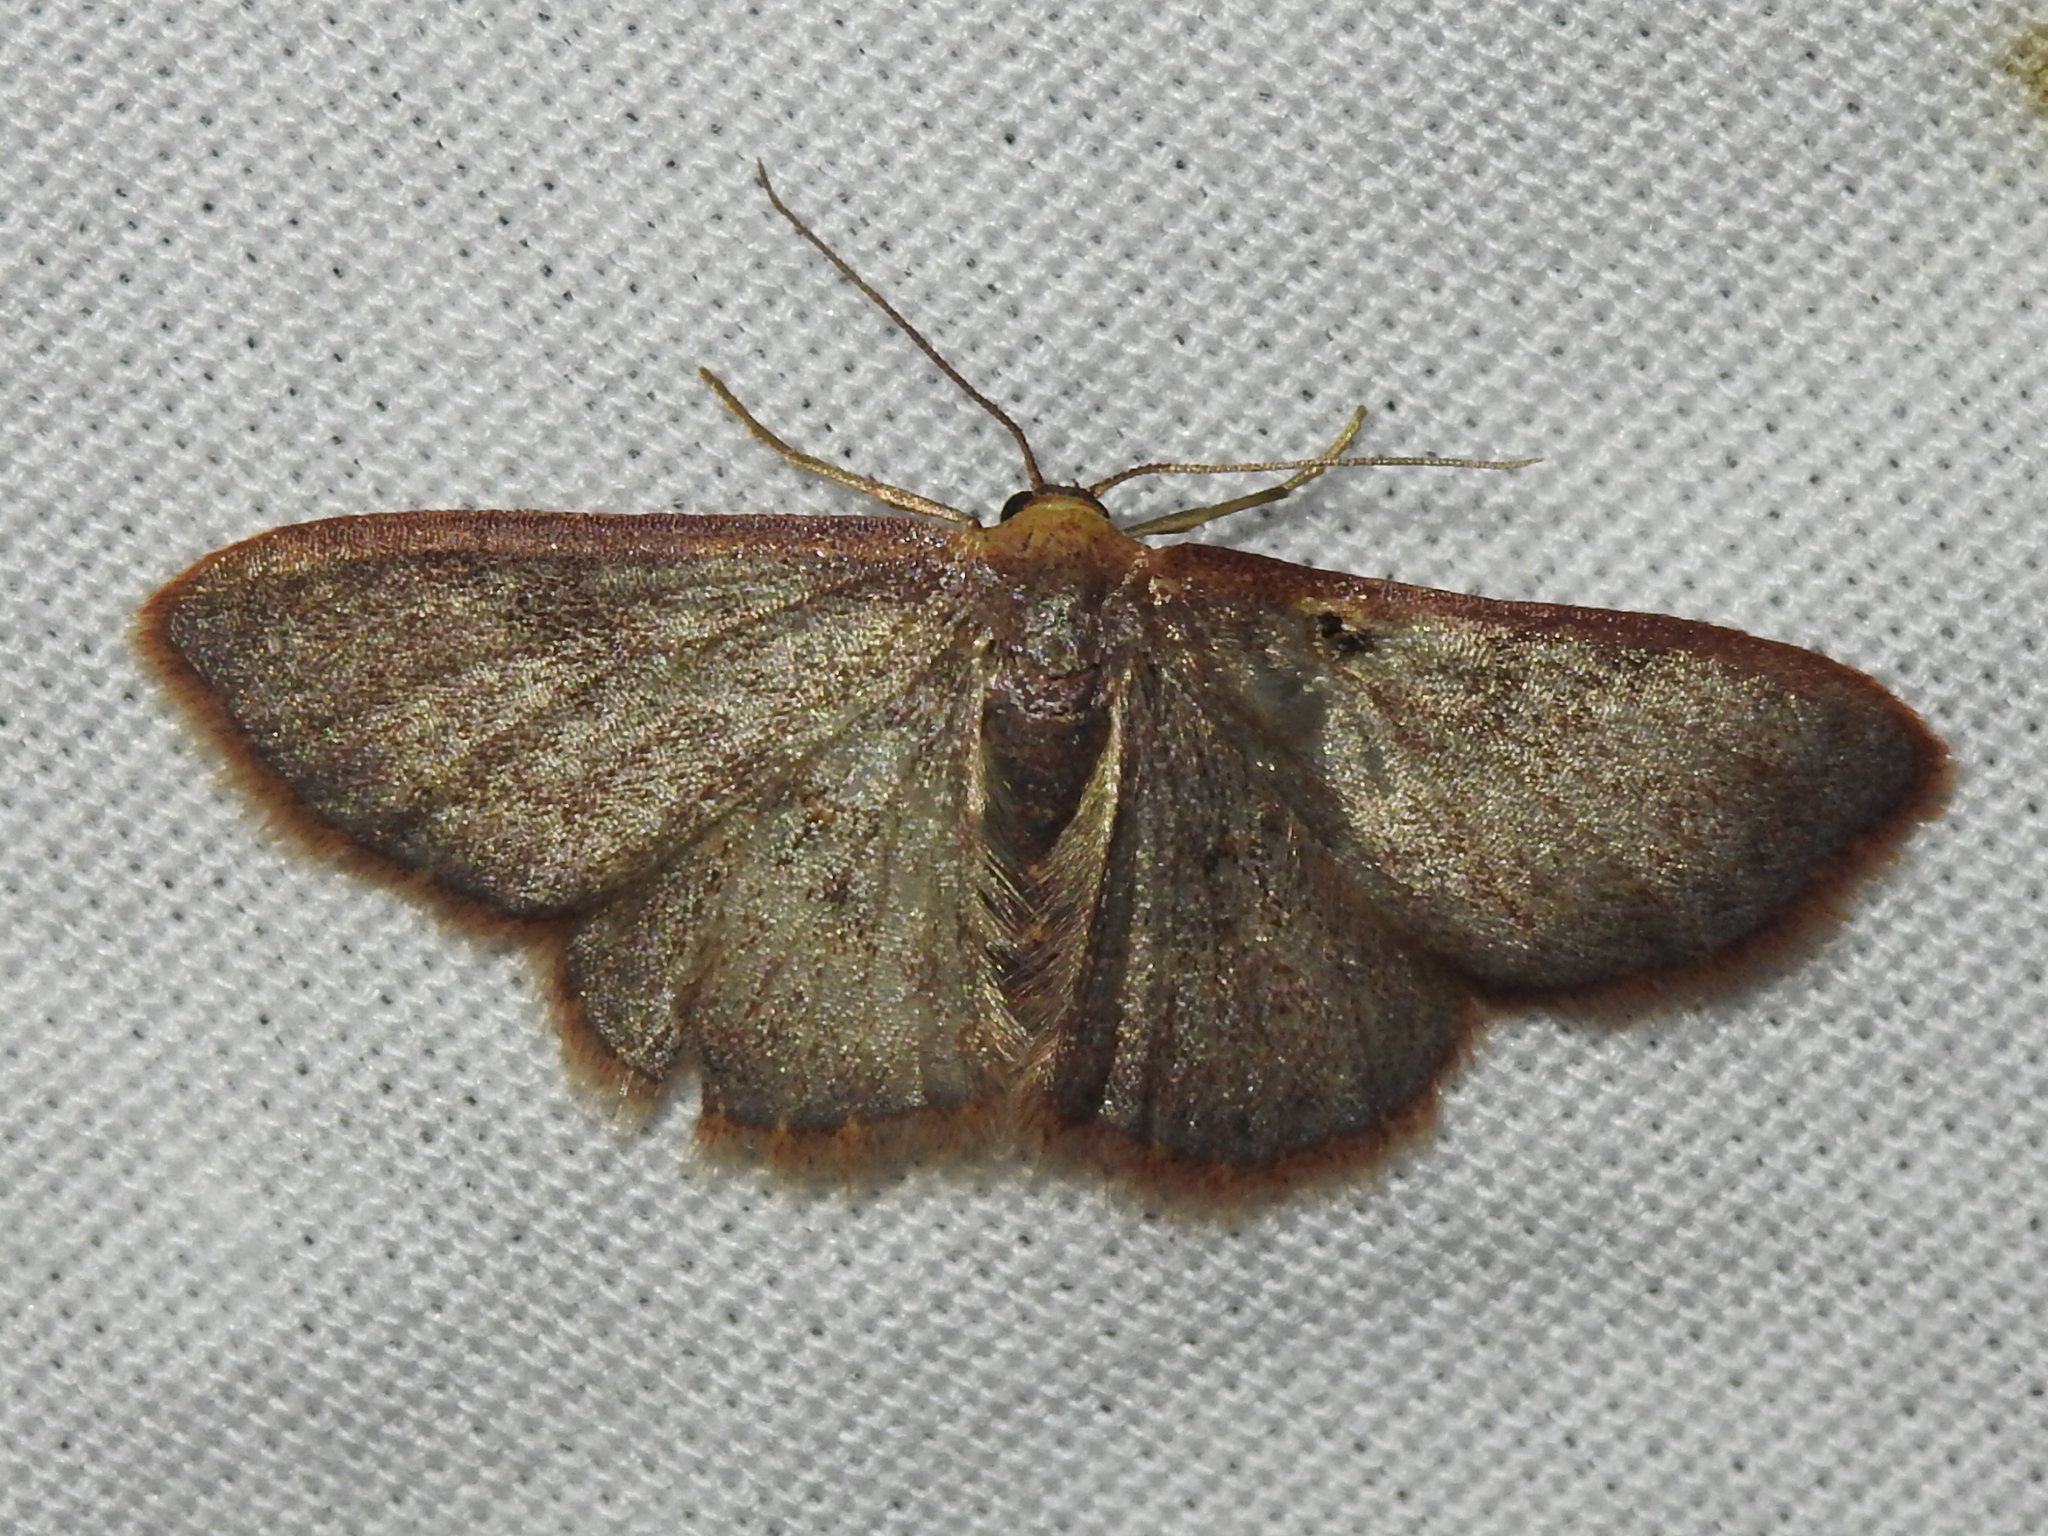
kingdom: Animalia
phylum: Arthropoda
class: Insecta
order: Lepidoptera
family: Geometridae
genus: Leptostales
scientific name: Leptostales pannaria
